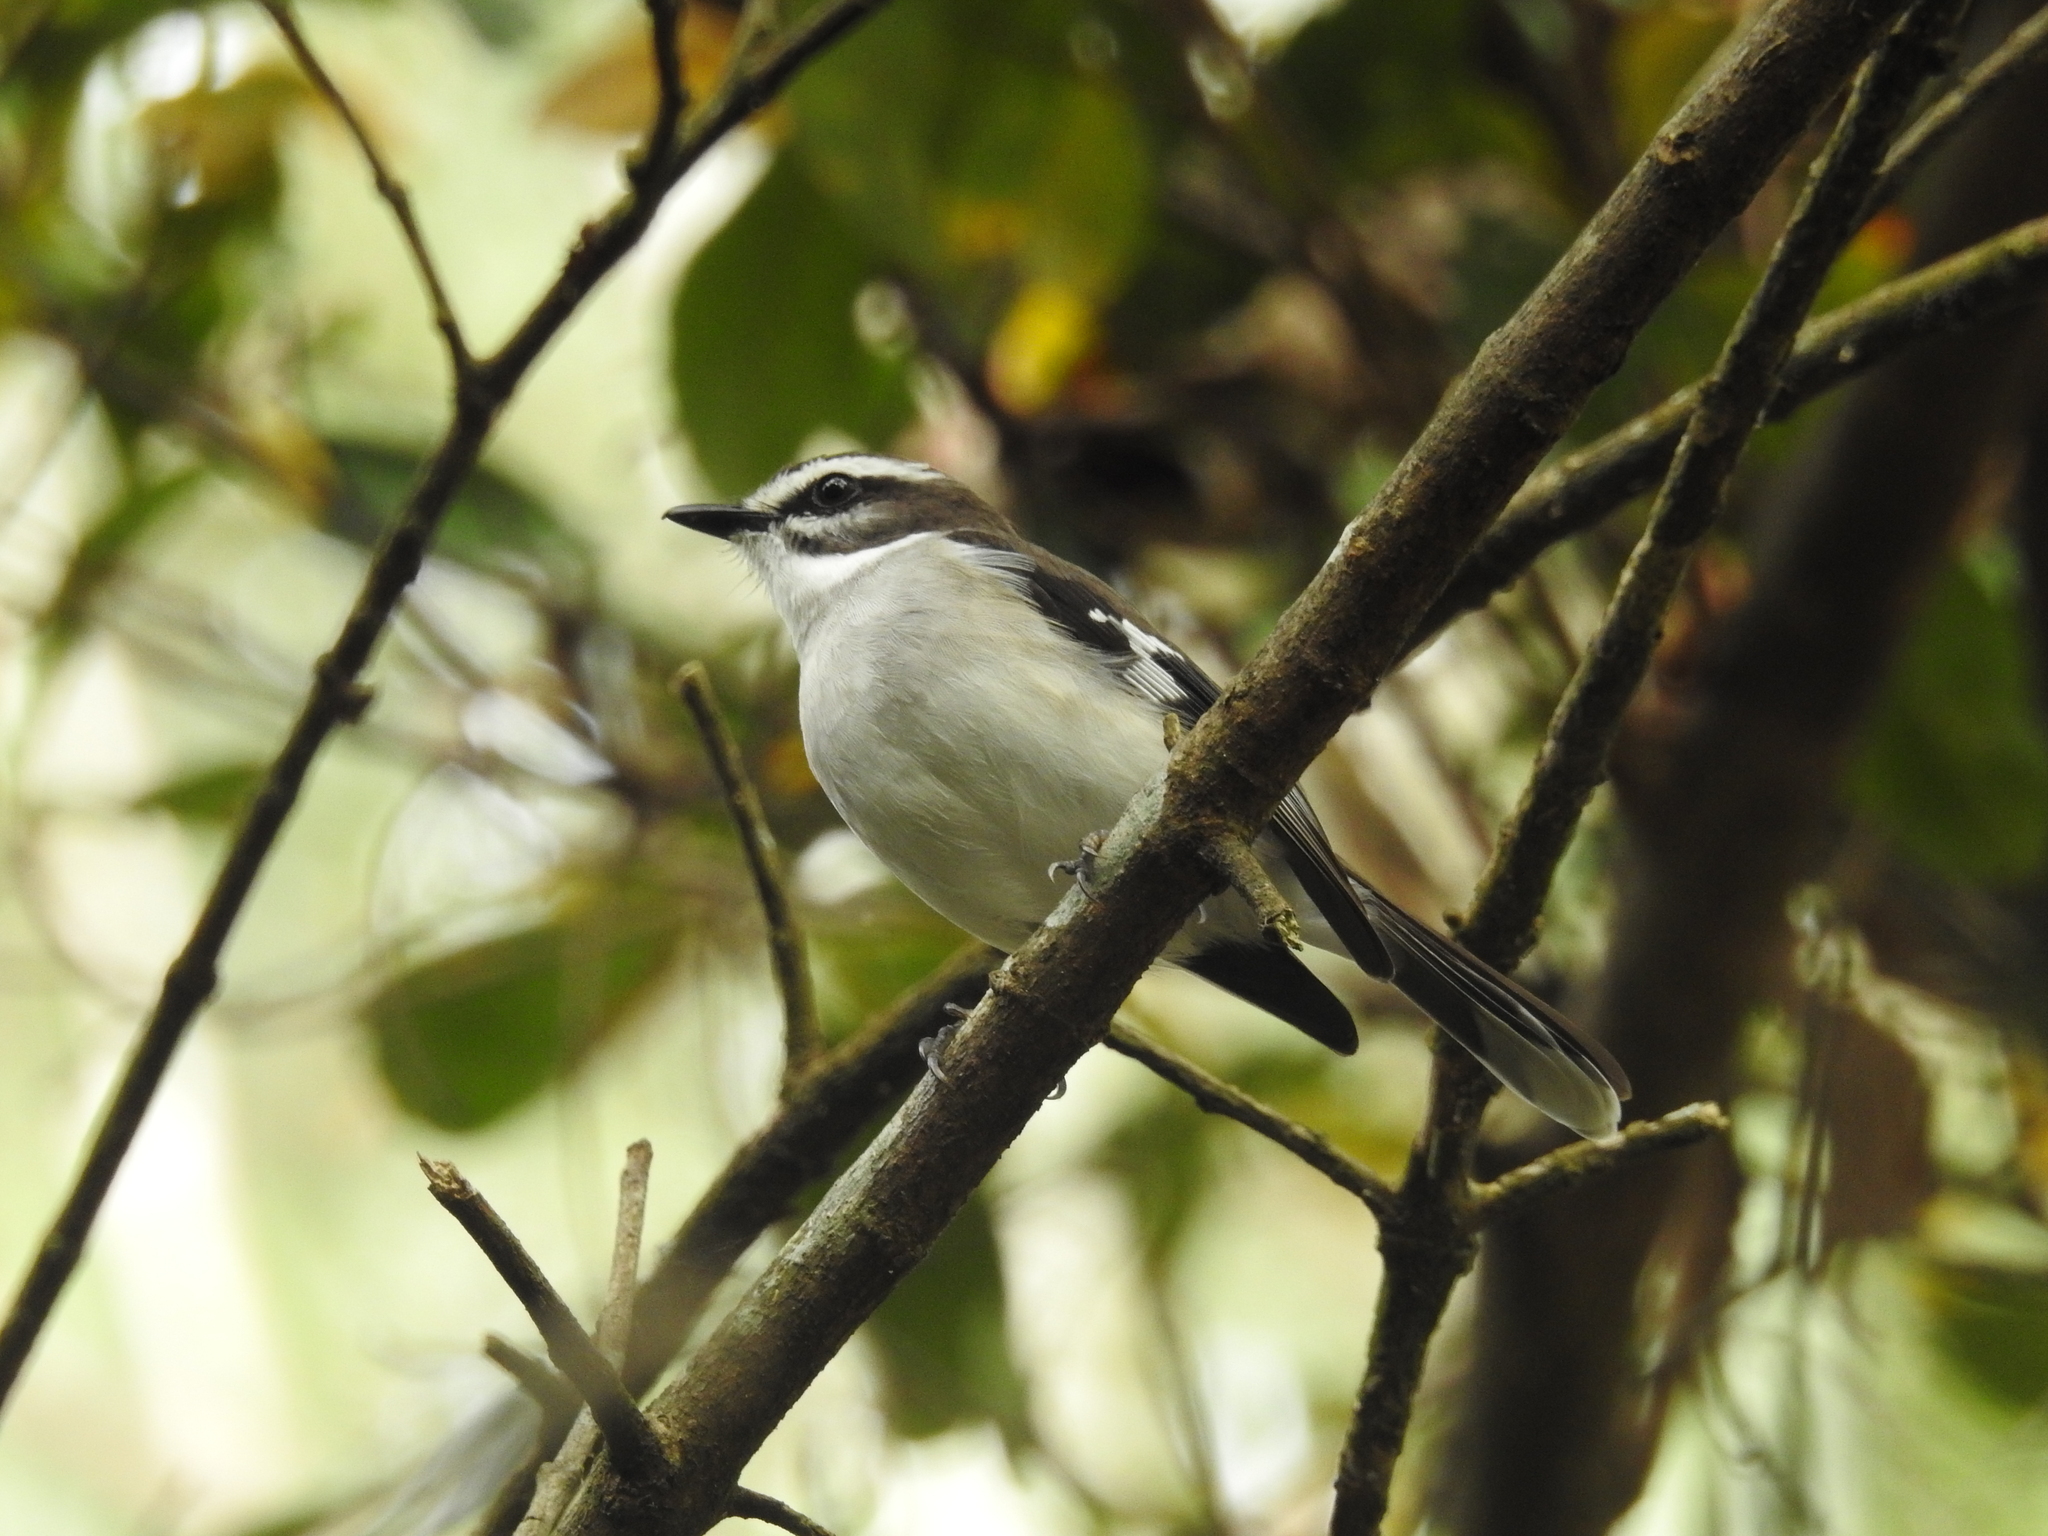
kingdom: Animalia
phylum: Chordata
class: Aves
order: Passeriformes
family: Petroicidae
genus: Poecilodryas
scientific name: Poecilodryas superciliosa
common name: White-browed robin
